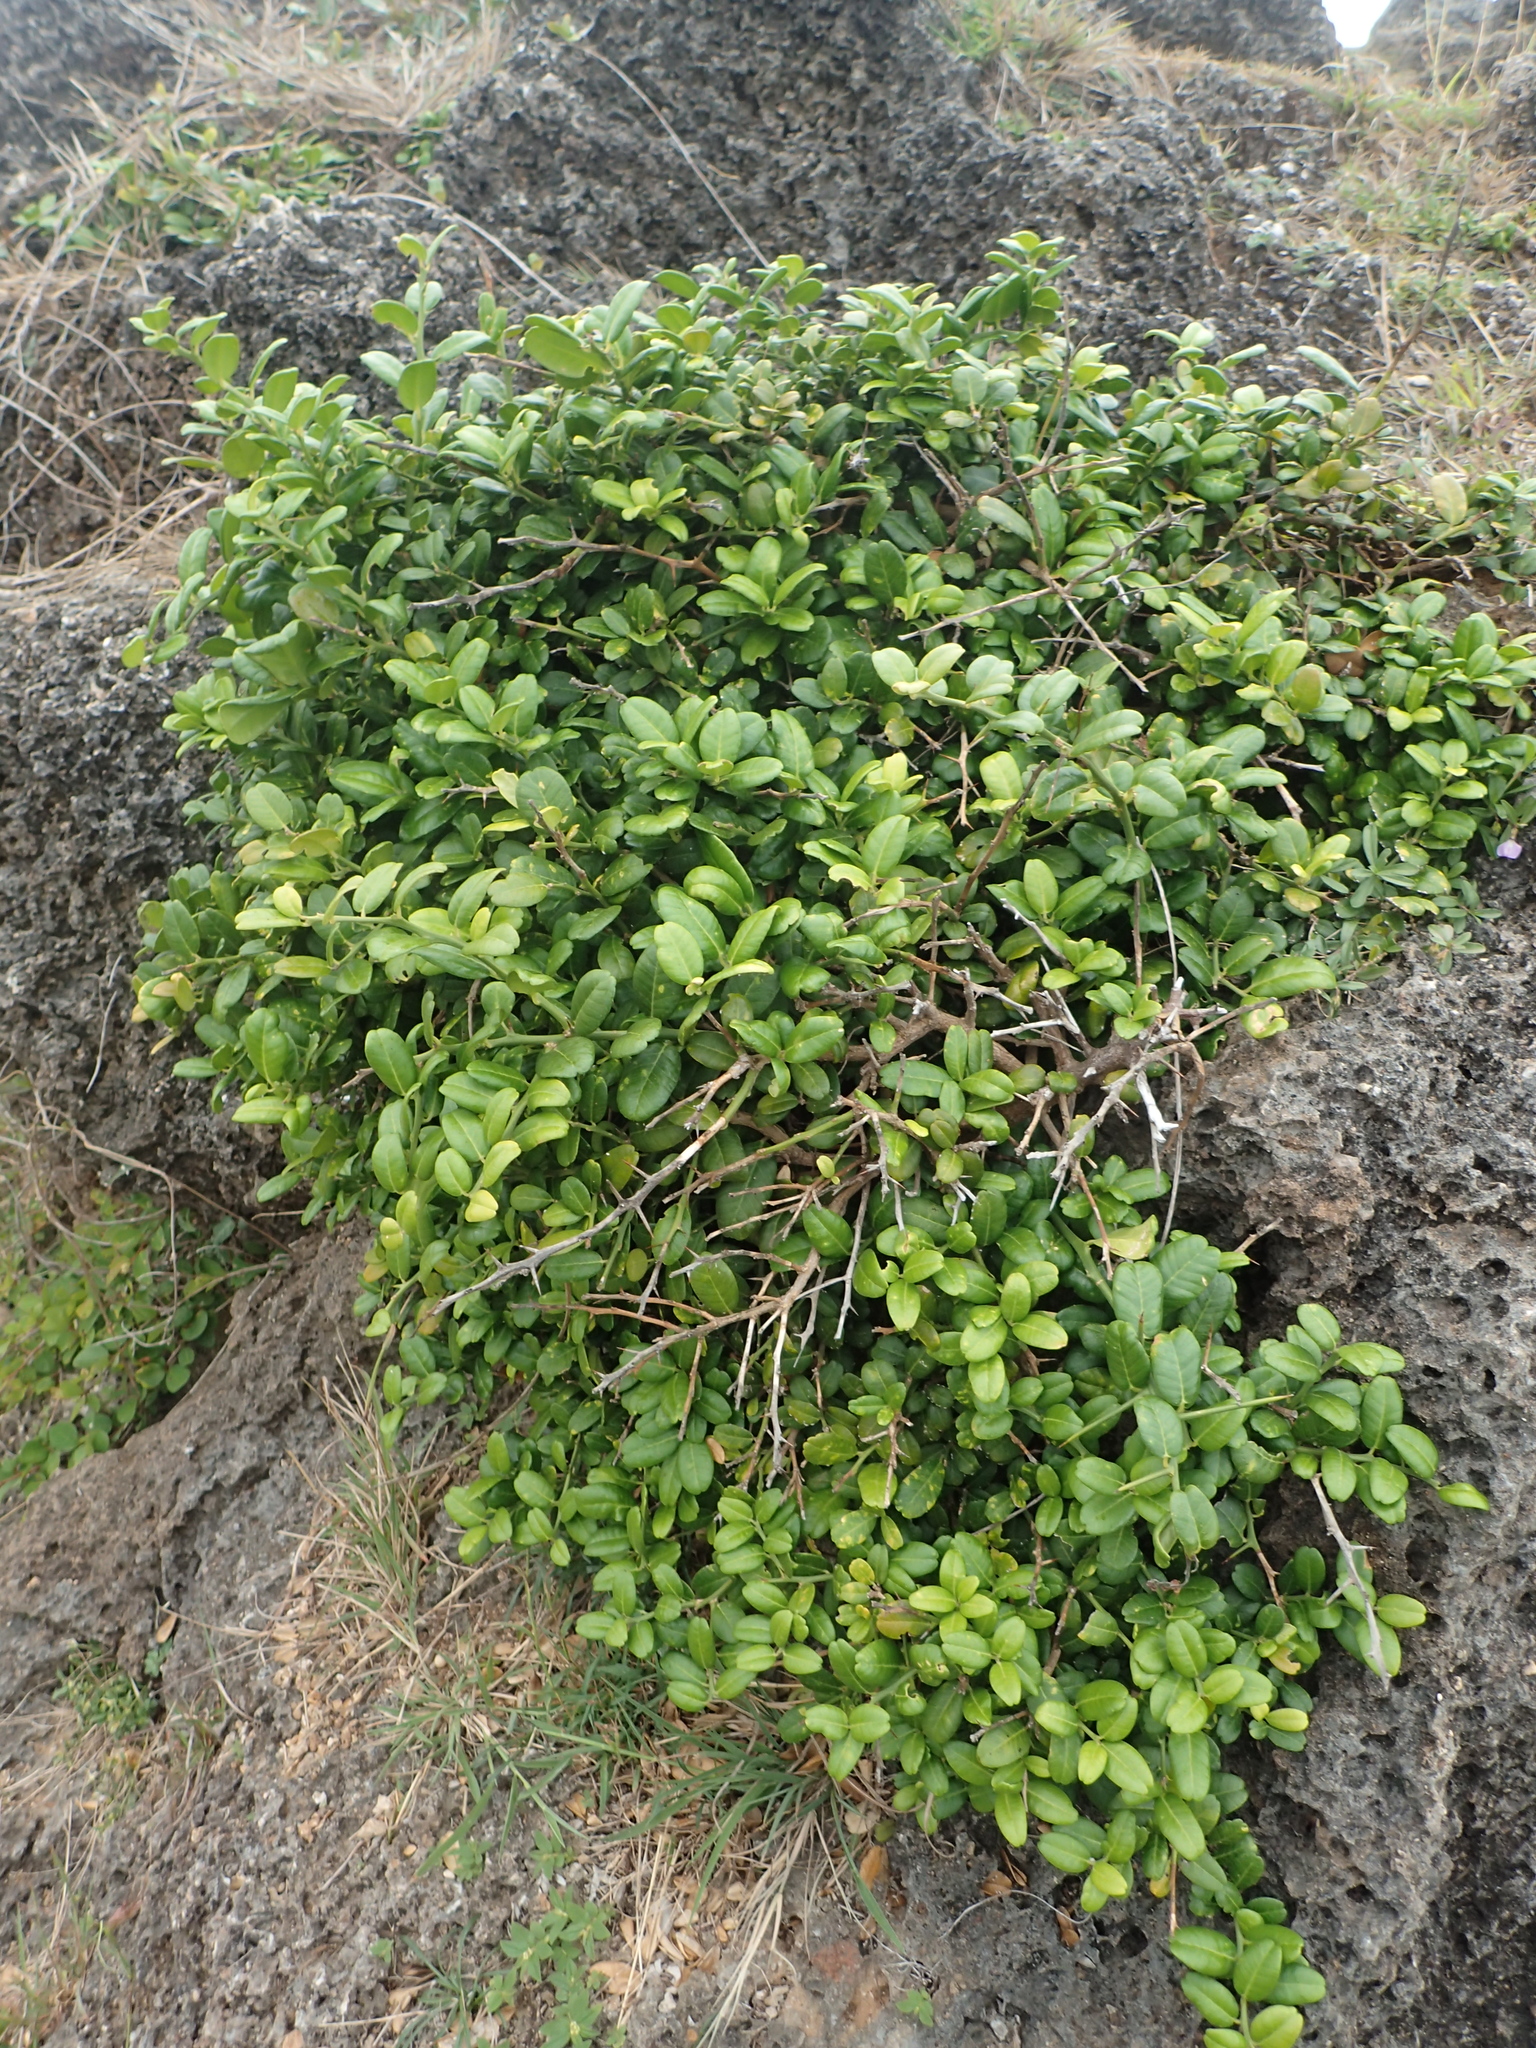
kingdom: Plantae
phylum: Tracheophyta
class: Magnoliopsida
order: Sapindales
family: Rutaceae
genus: Atalantia
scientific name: Atalantia buxifolia
